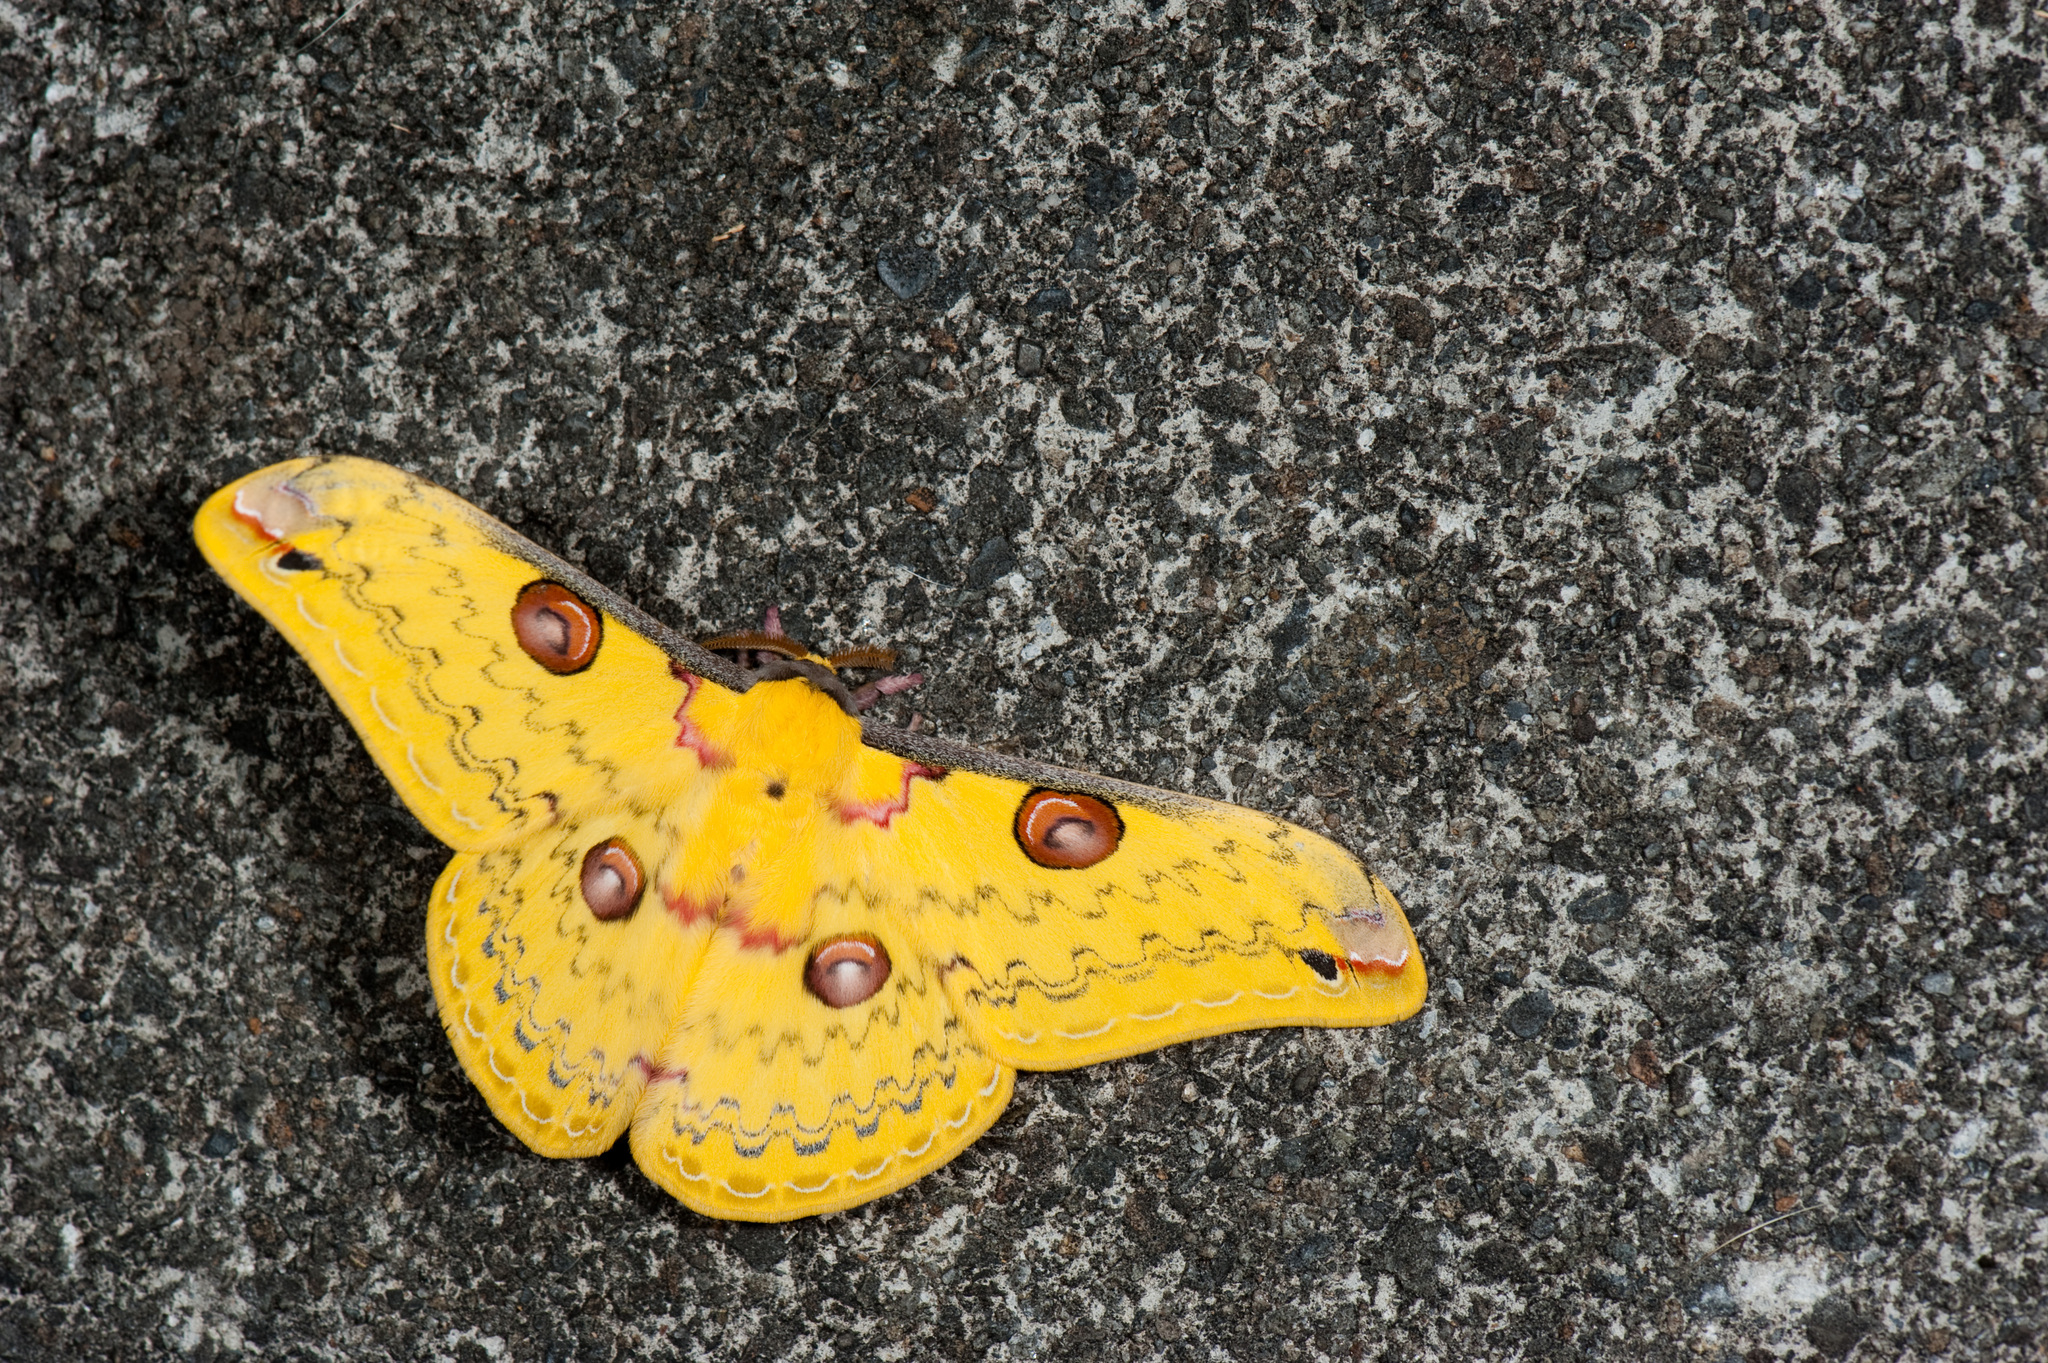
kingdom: Animalia
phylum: Arthropoda
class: Insecta
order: Lepidoptera
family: Saturniidae
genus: Loepa
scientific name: Loepa formosensis
